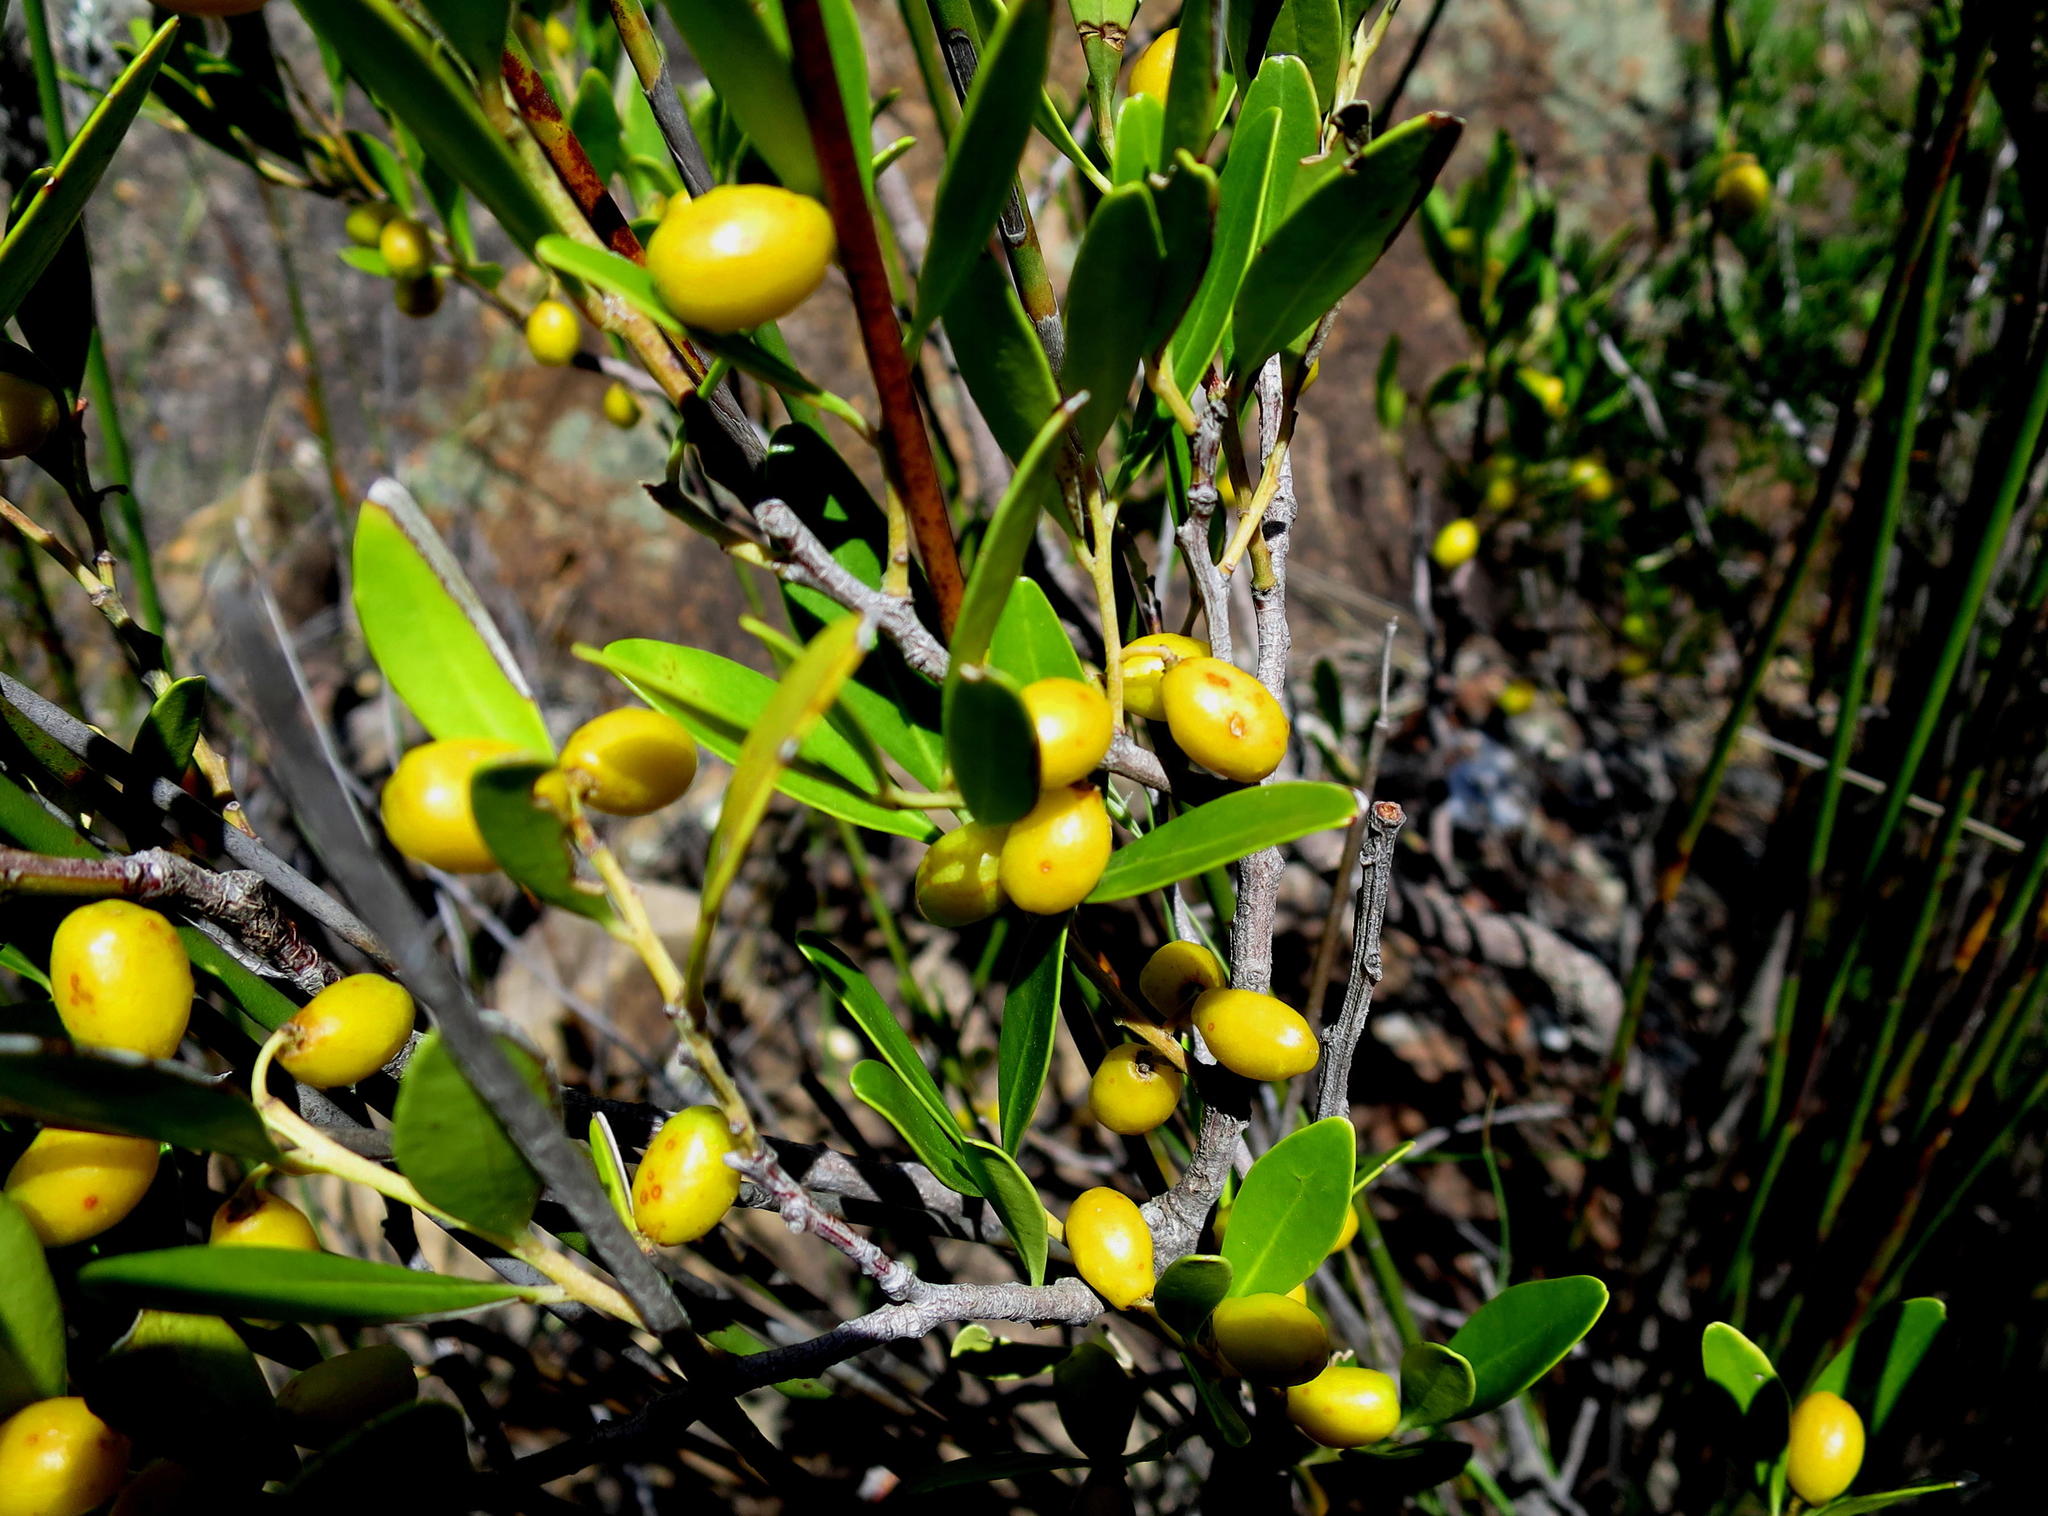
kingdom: Plantae
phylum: Tracheophyta
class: Magnoliopsida
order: Celastrales
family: Celastraceae
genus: Gymnosporia
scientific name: Gymnosporia laurina
